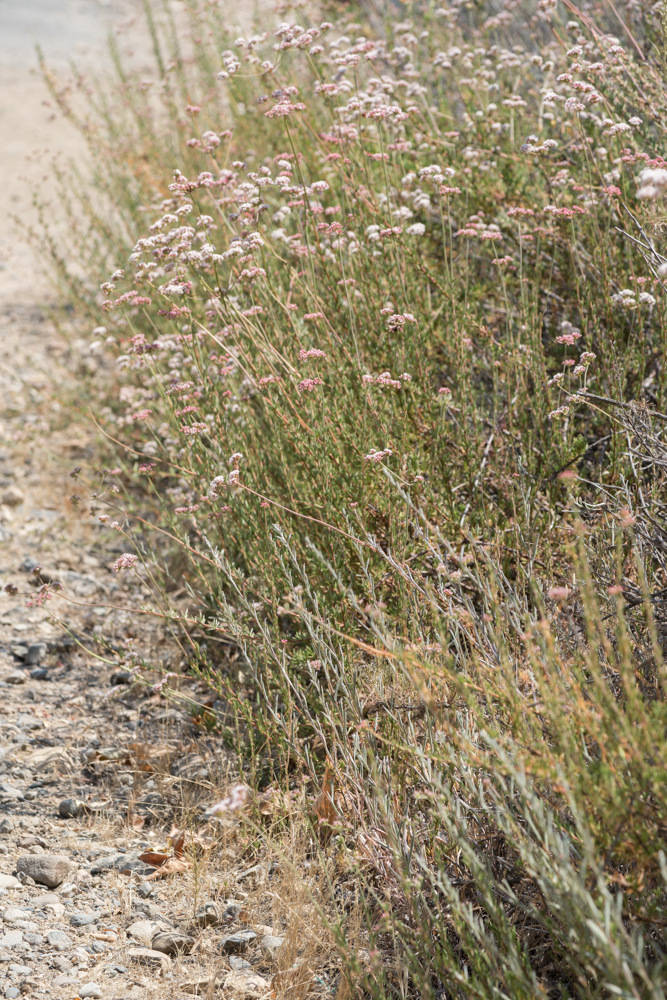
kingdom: Plantae
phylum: Tracheophyta
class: Magnoliopsida
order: Caryophyllales
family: Polygonaceae
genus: Eriogonum
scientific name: Eriogonum fasciculatum
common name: California wild buckwheat
